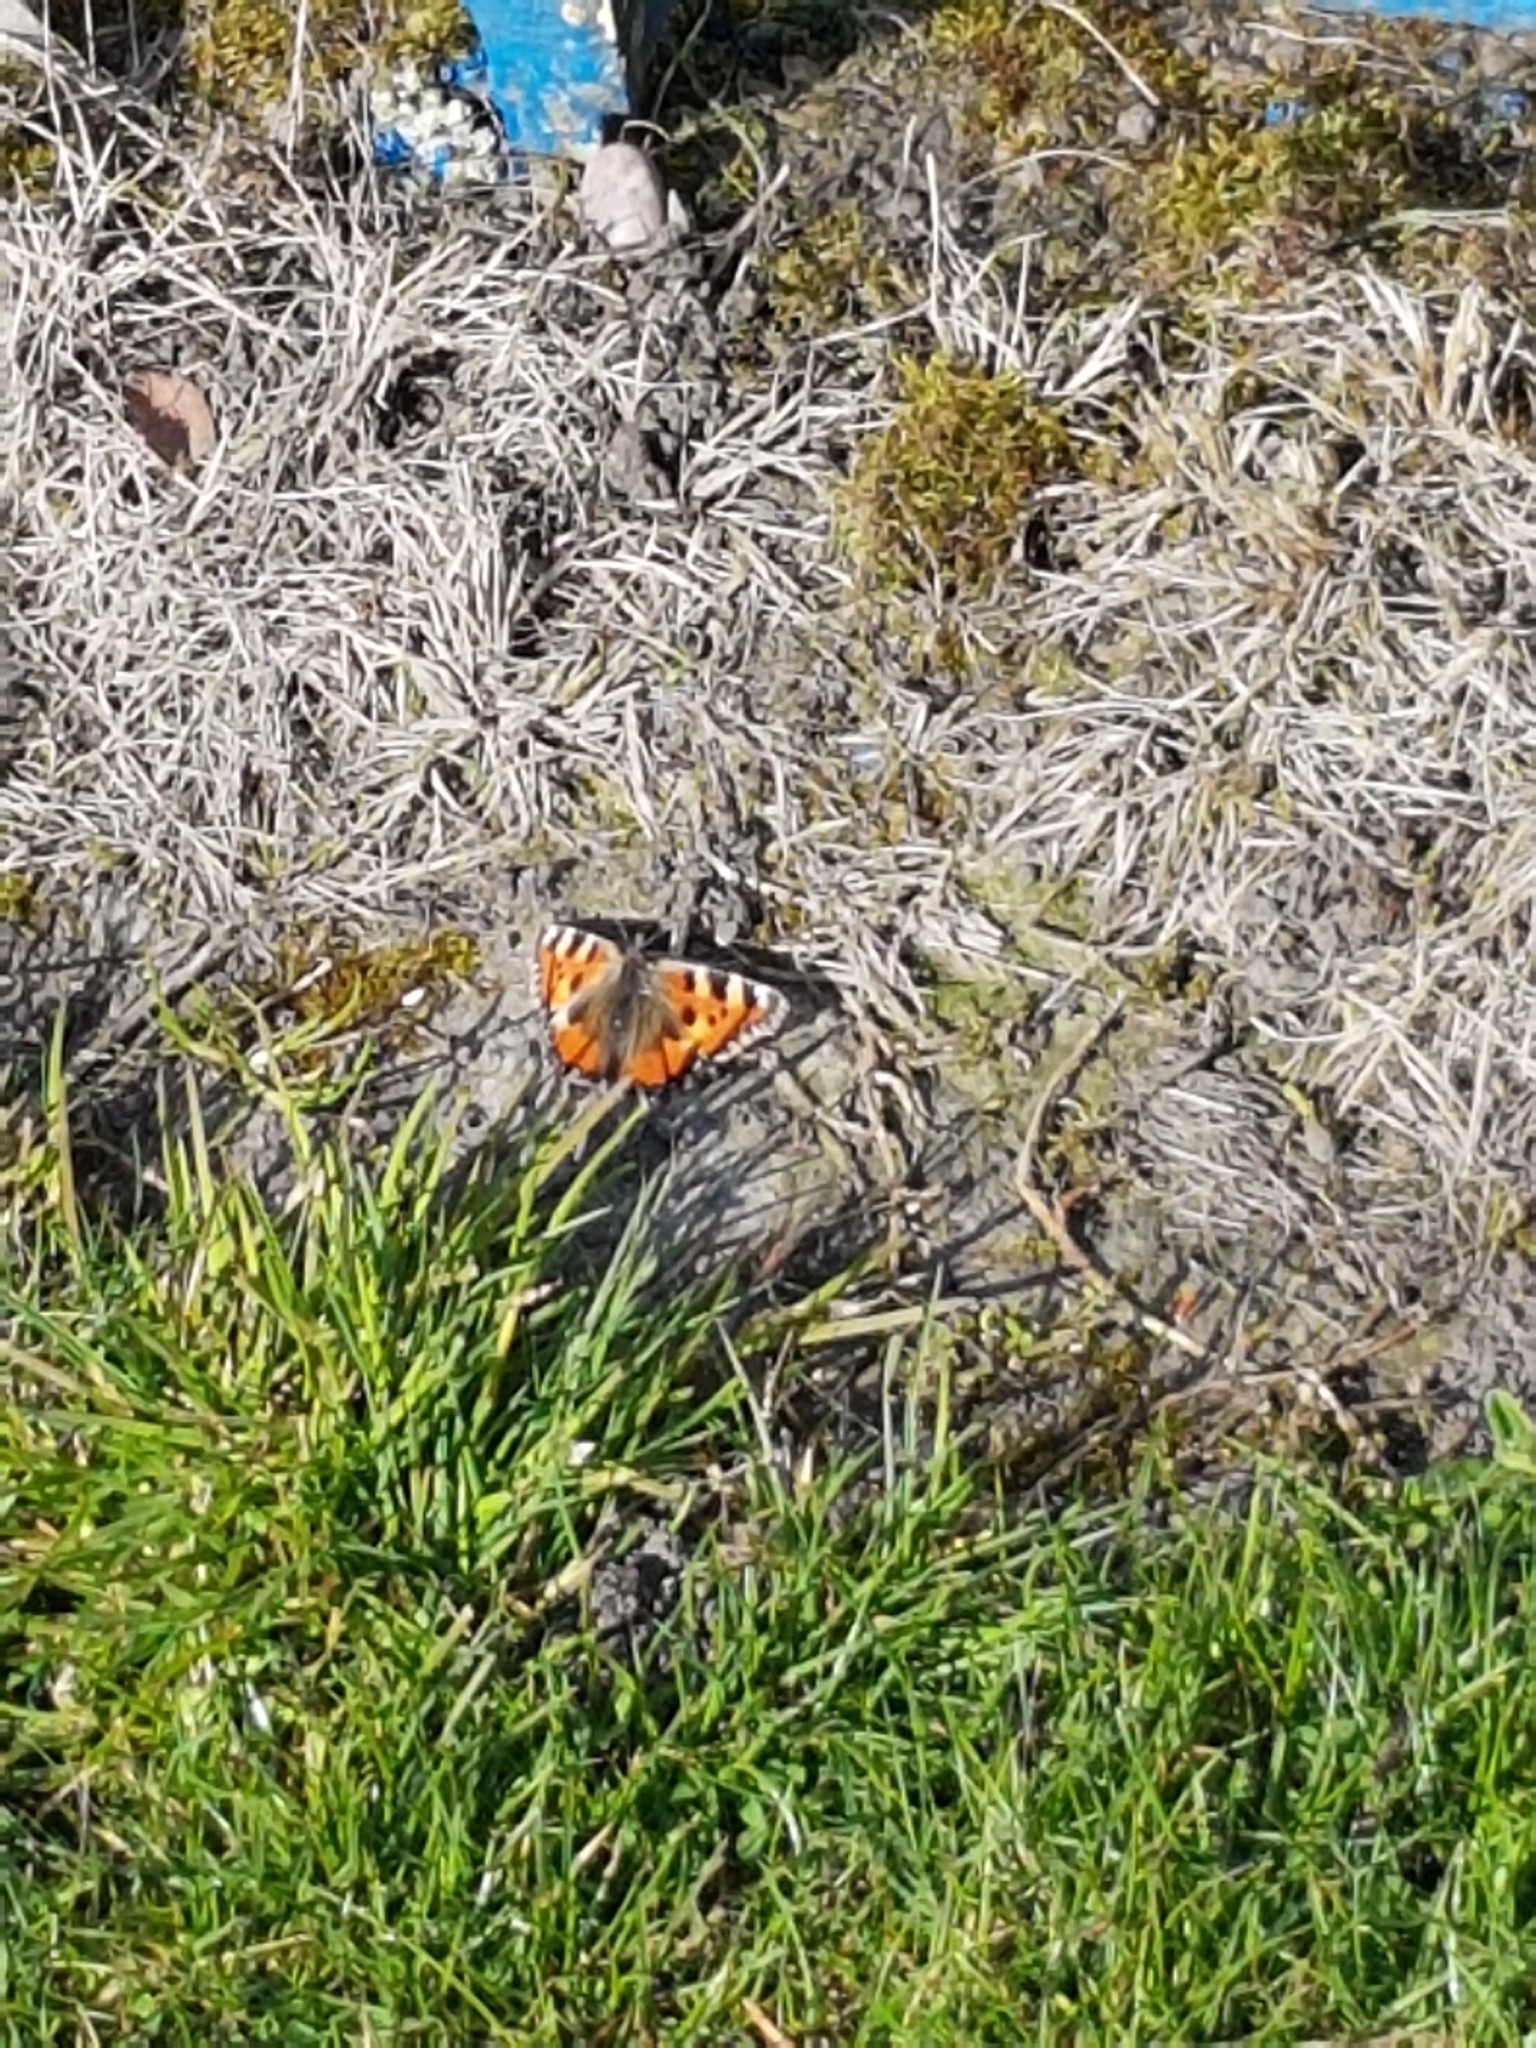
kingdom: Animalia
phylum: Arthropoda
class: Insecta
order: Lepidoptera
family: Nymphalidae
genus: Aglais
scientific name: Aglais urticae
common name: Small tortoiseshell
